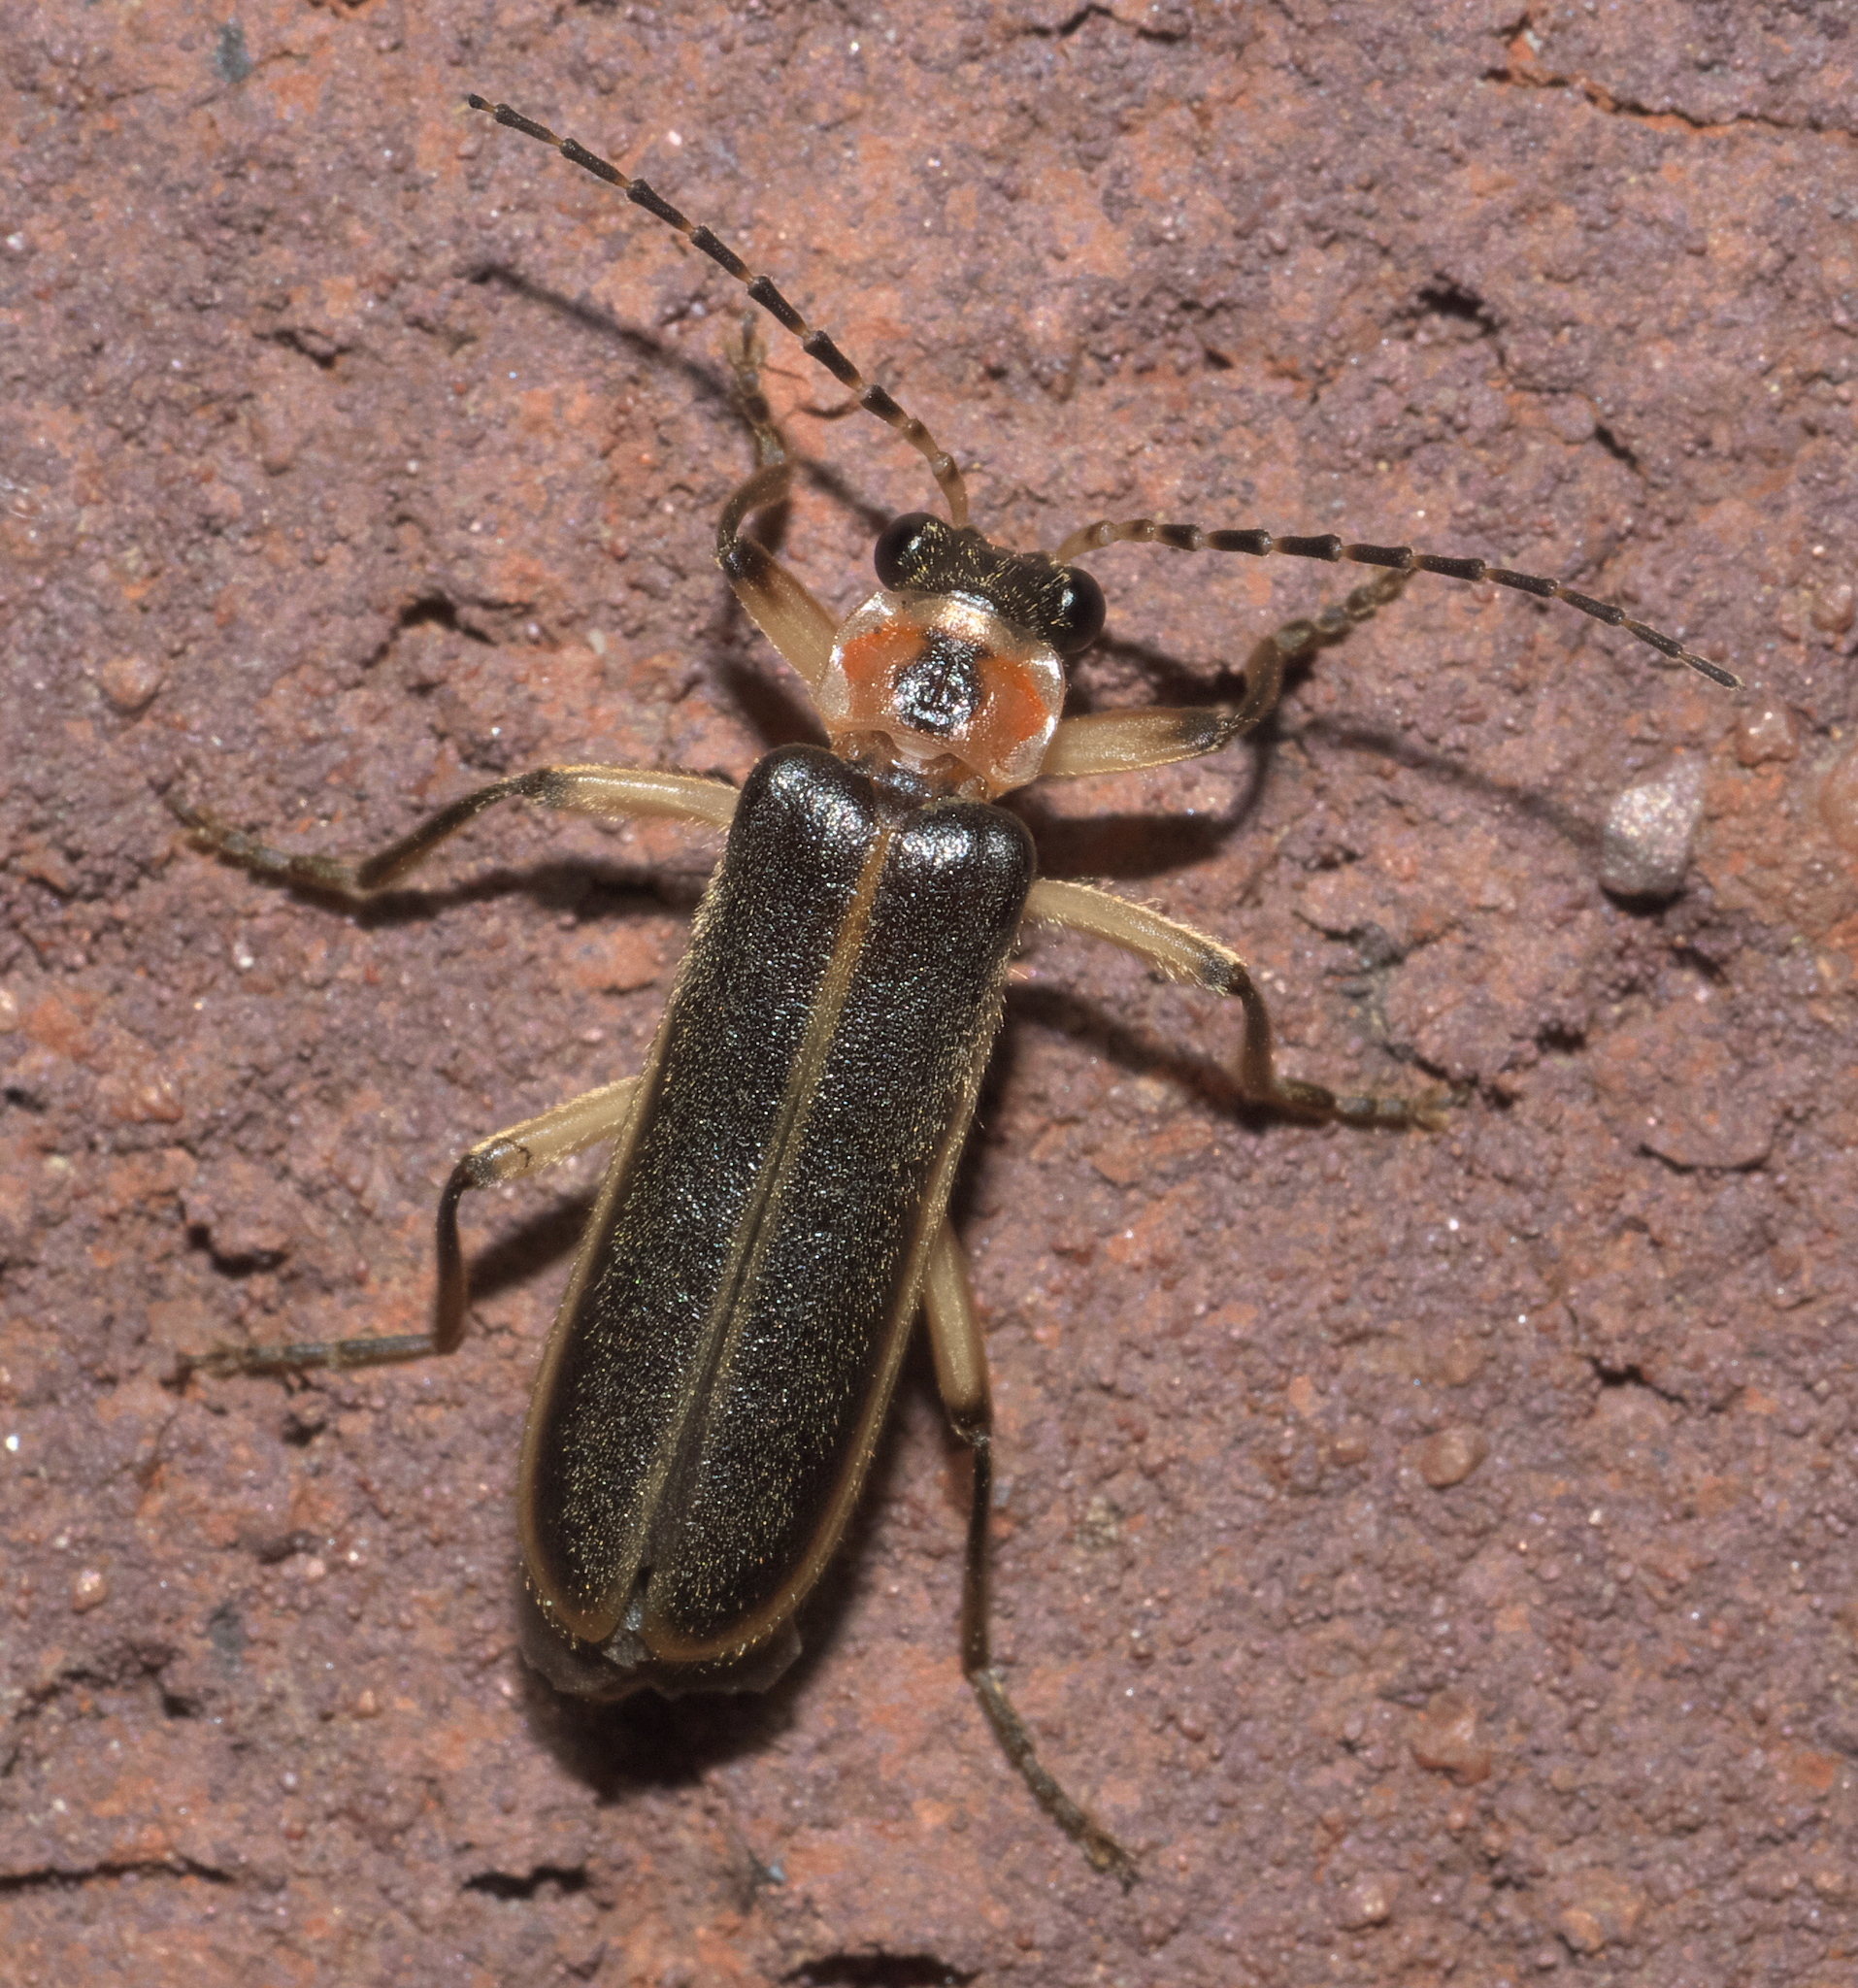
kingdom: Animalia
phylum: Arthropoda
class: Insecta
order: Coleoptera
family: Cantharidae
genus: Podabrus
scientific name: Podabrus basilaris
